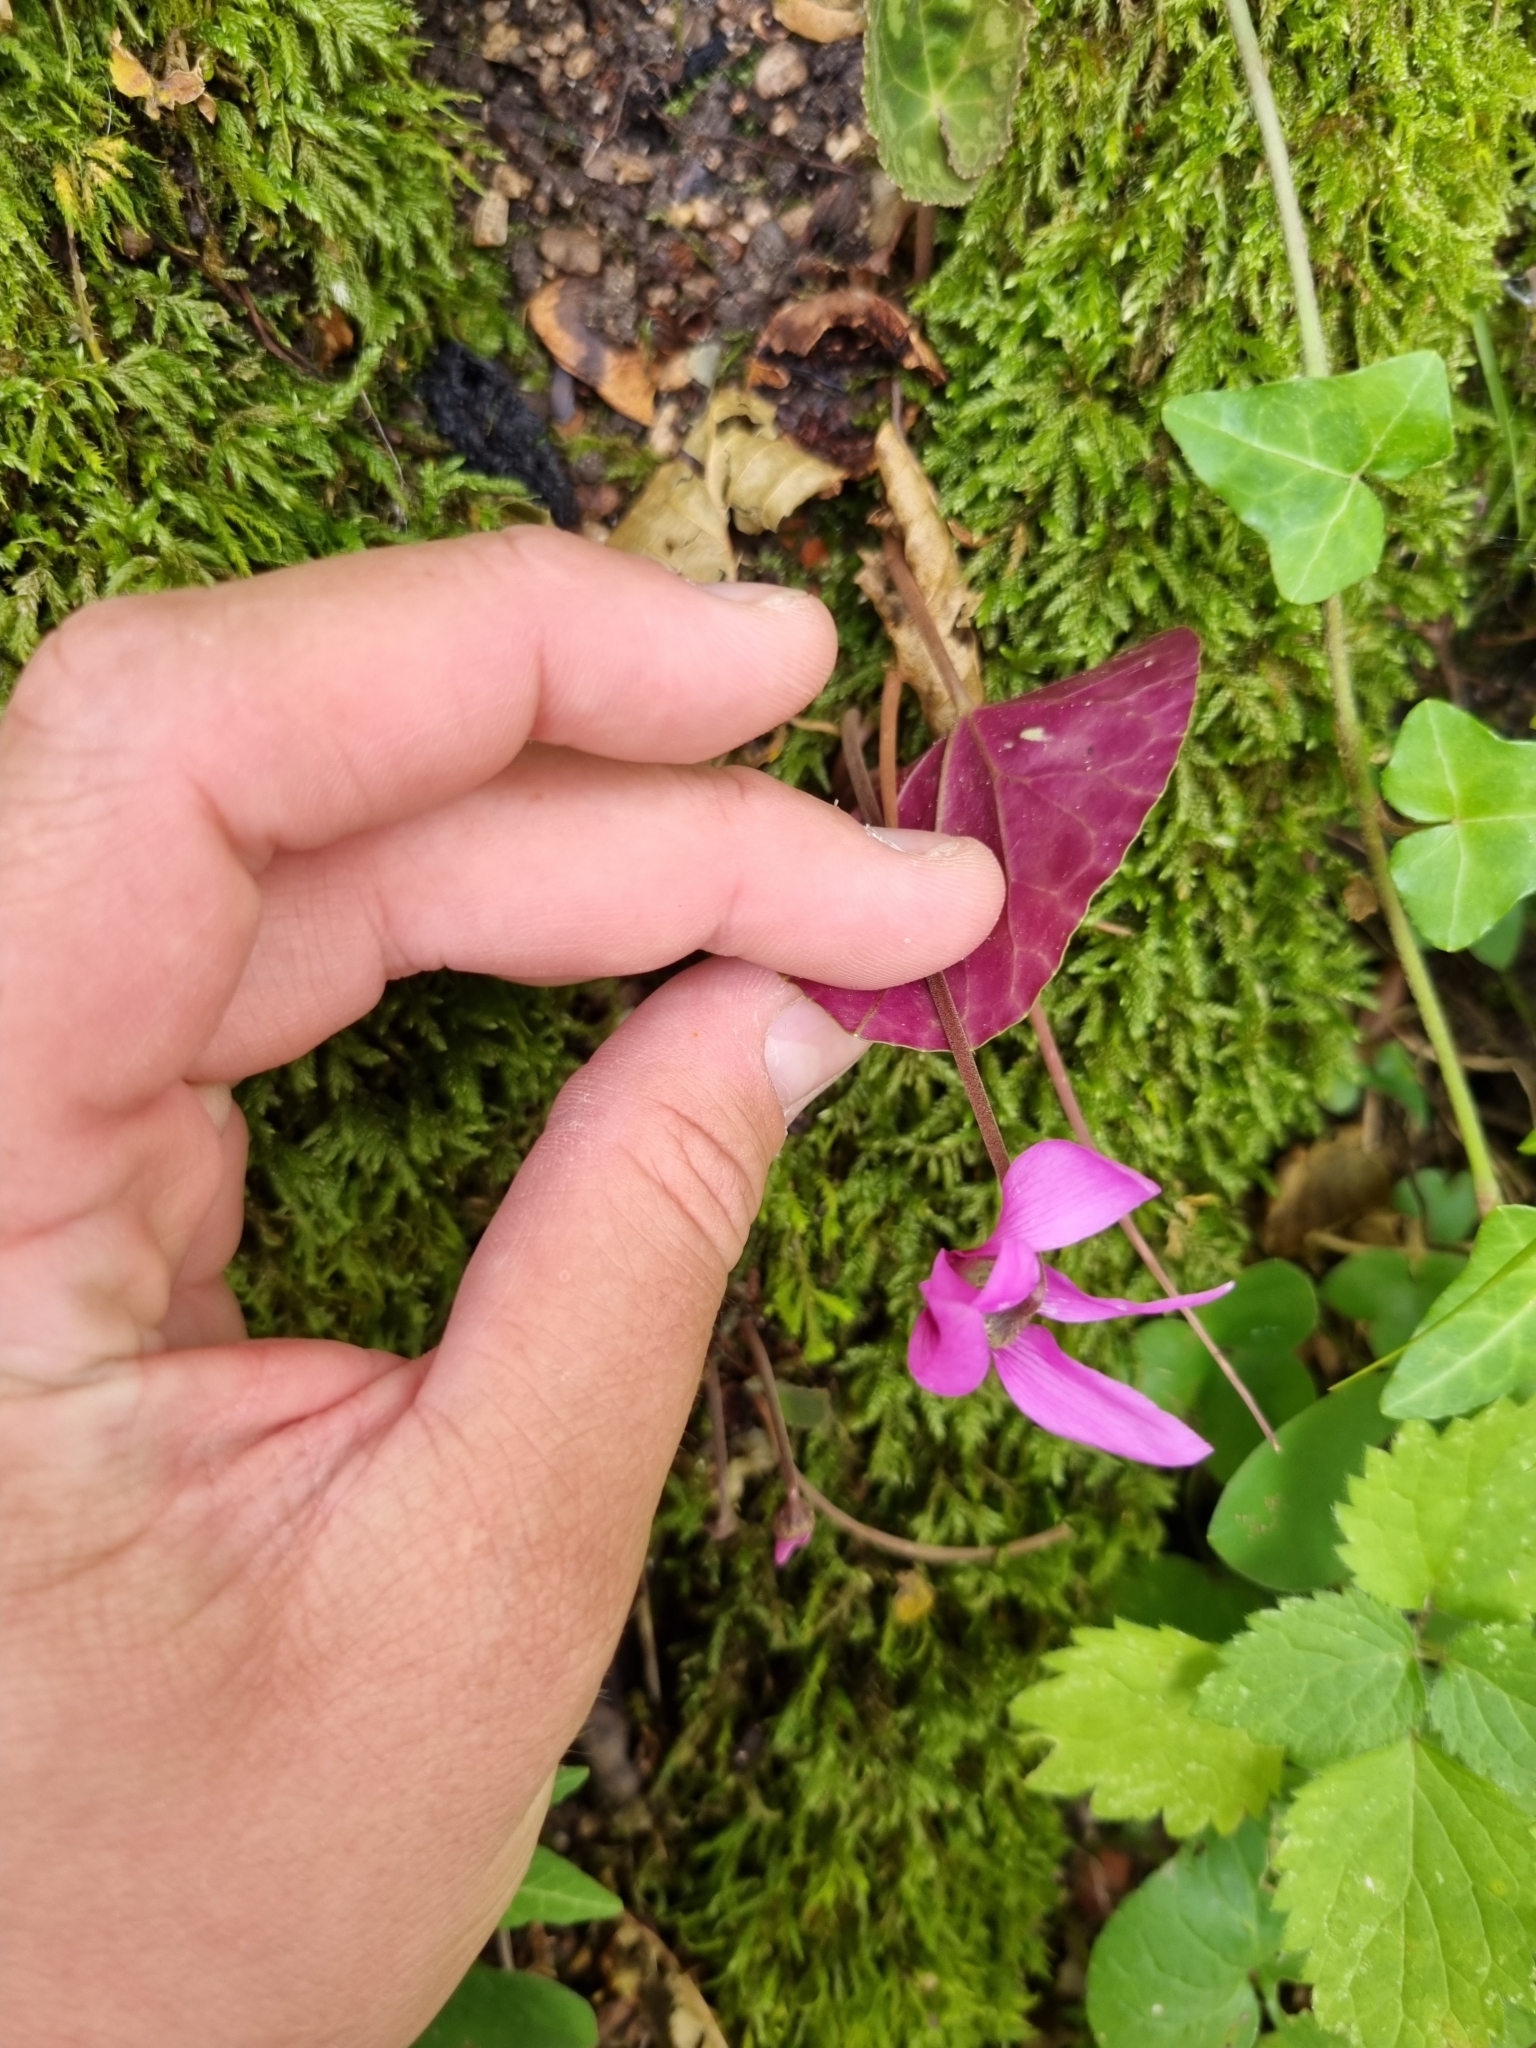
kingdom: Plantae
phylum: Tracheophyta
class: Magnoliopsida
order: Ericales
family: Primulaceae
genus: Cyclamen
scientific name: Cyclamen purpurascens
